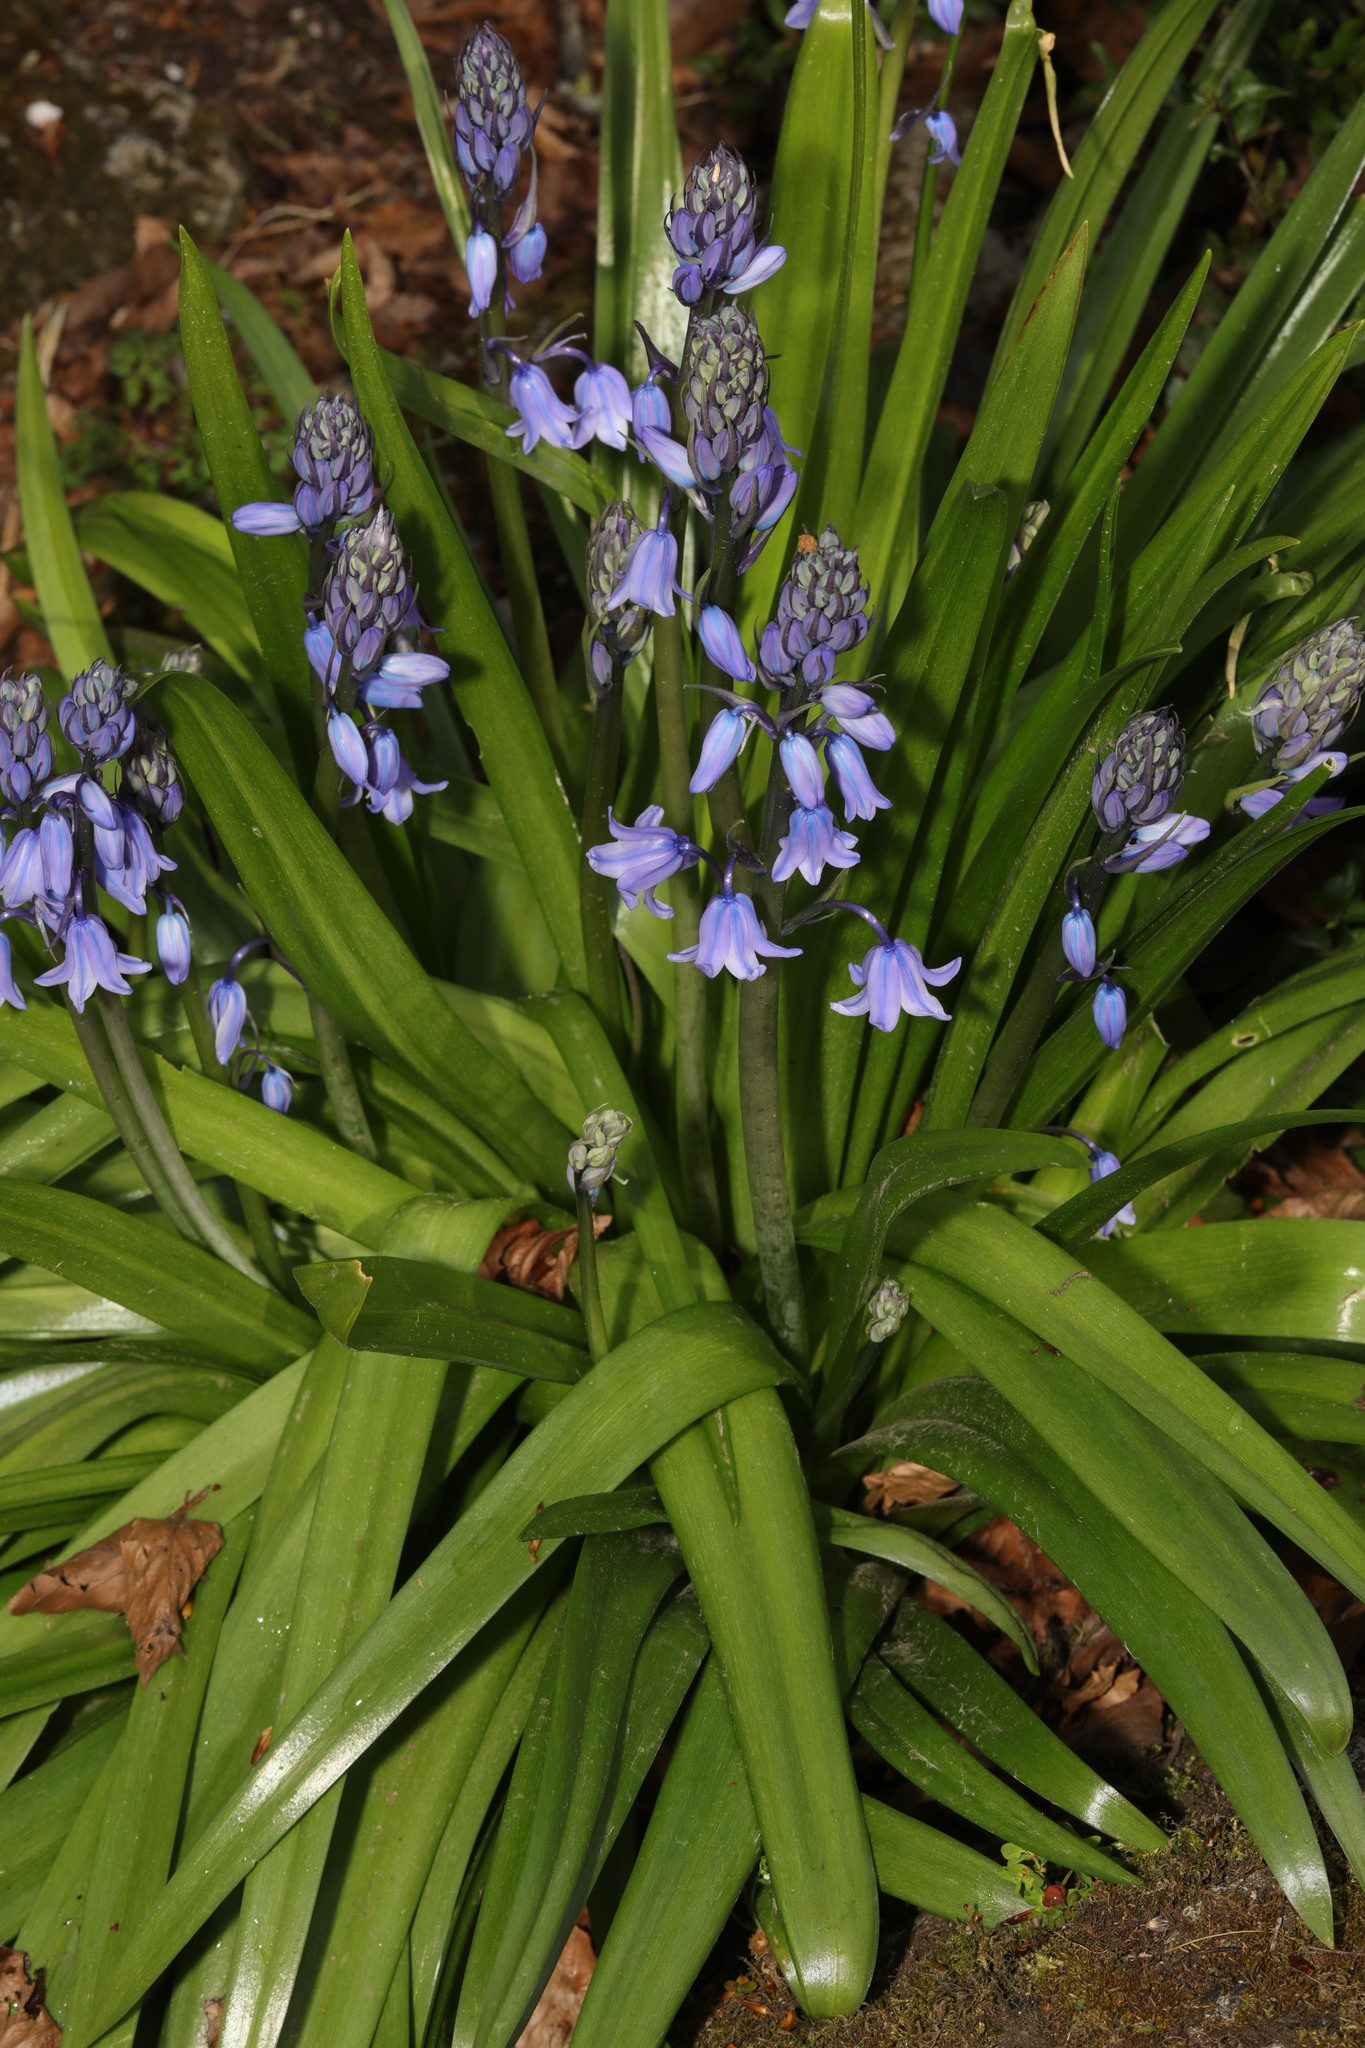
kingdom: Plantae
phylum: Tracheophyta
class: Liliopsida
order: Asparagales
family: Asparagaceae
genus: Hyacinthoides
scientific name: Hyacinthoides hispanica
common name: Spanish bluebell
